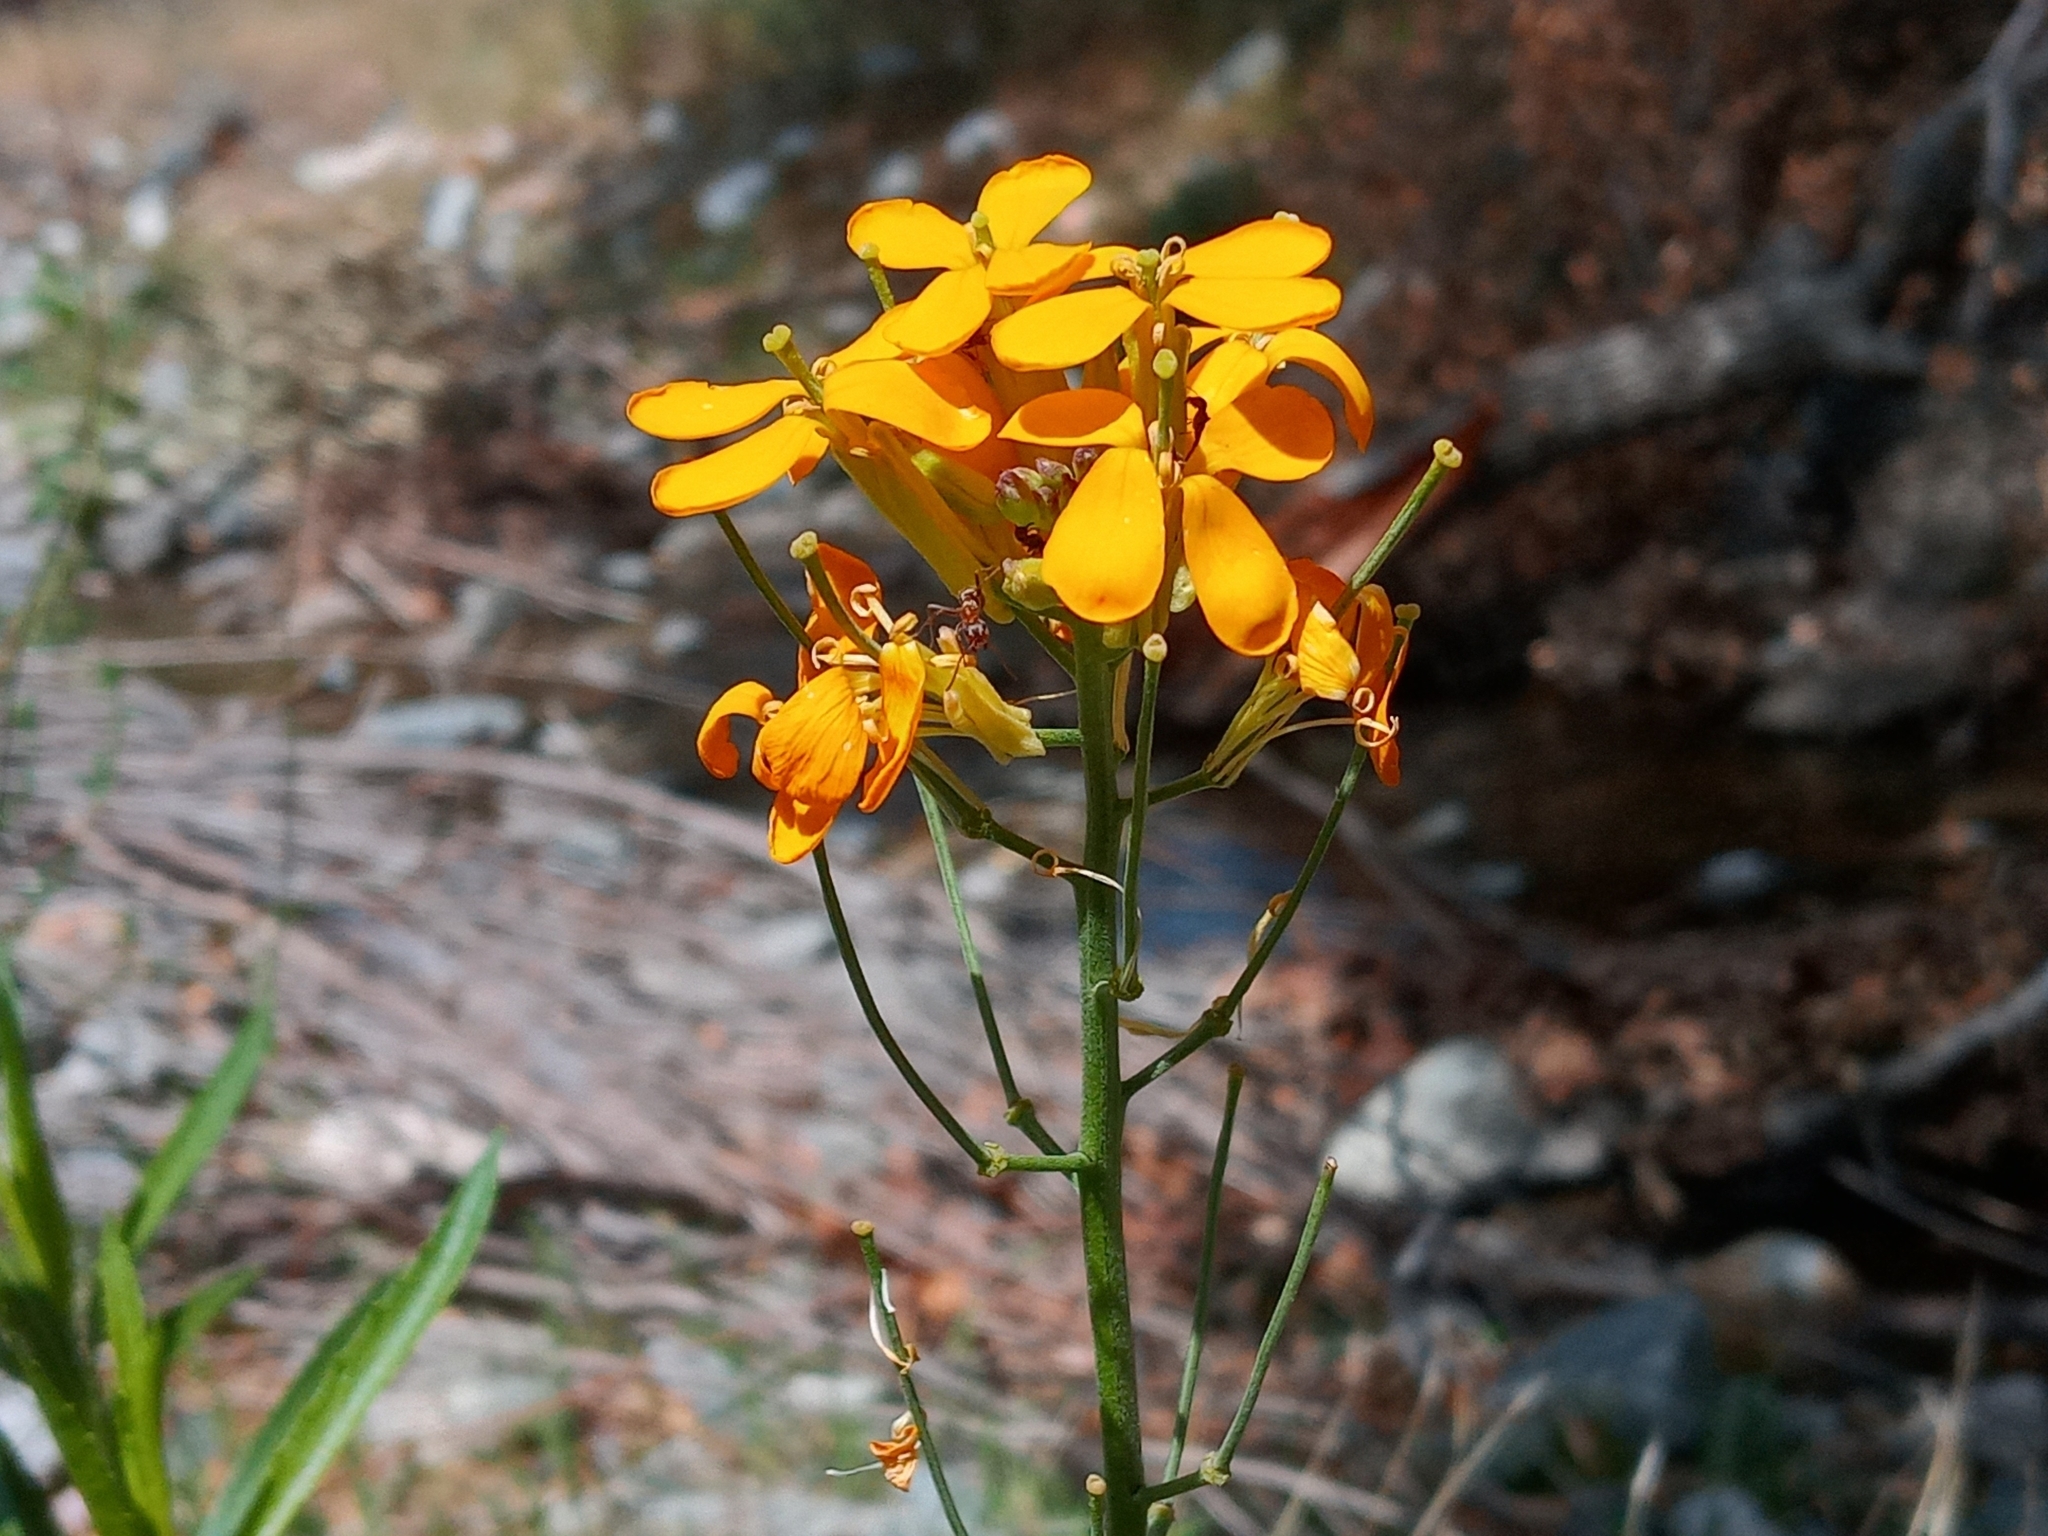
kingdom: Plantae
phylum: Tracheophyta
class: Magnoliopsida
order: Brassicales
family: Brassicaceae
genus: Erysimum
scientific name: Erysimum capitatum
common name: Western wallflower
